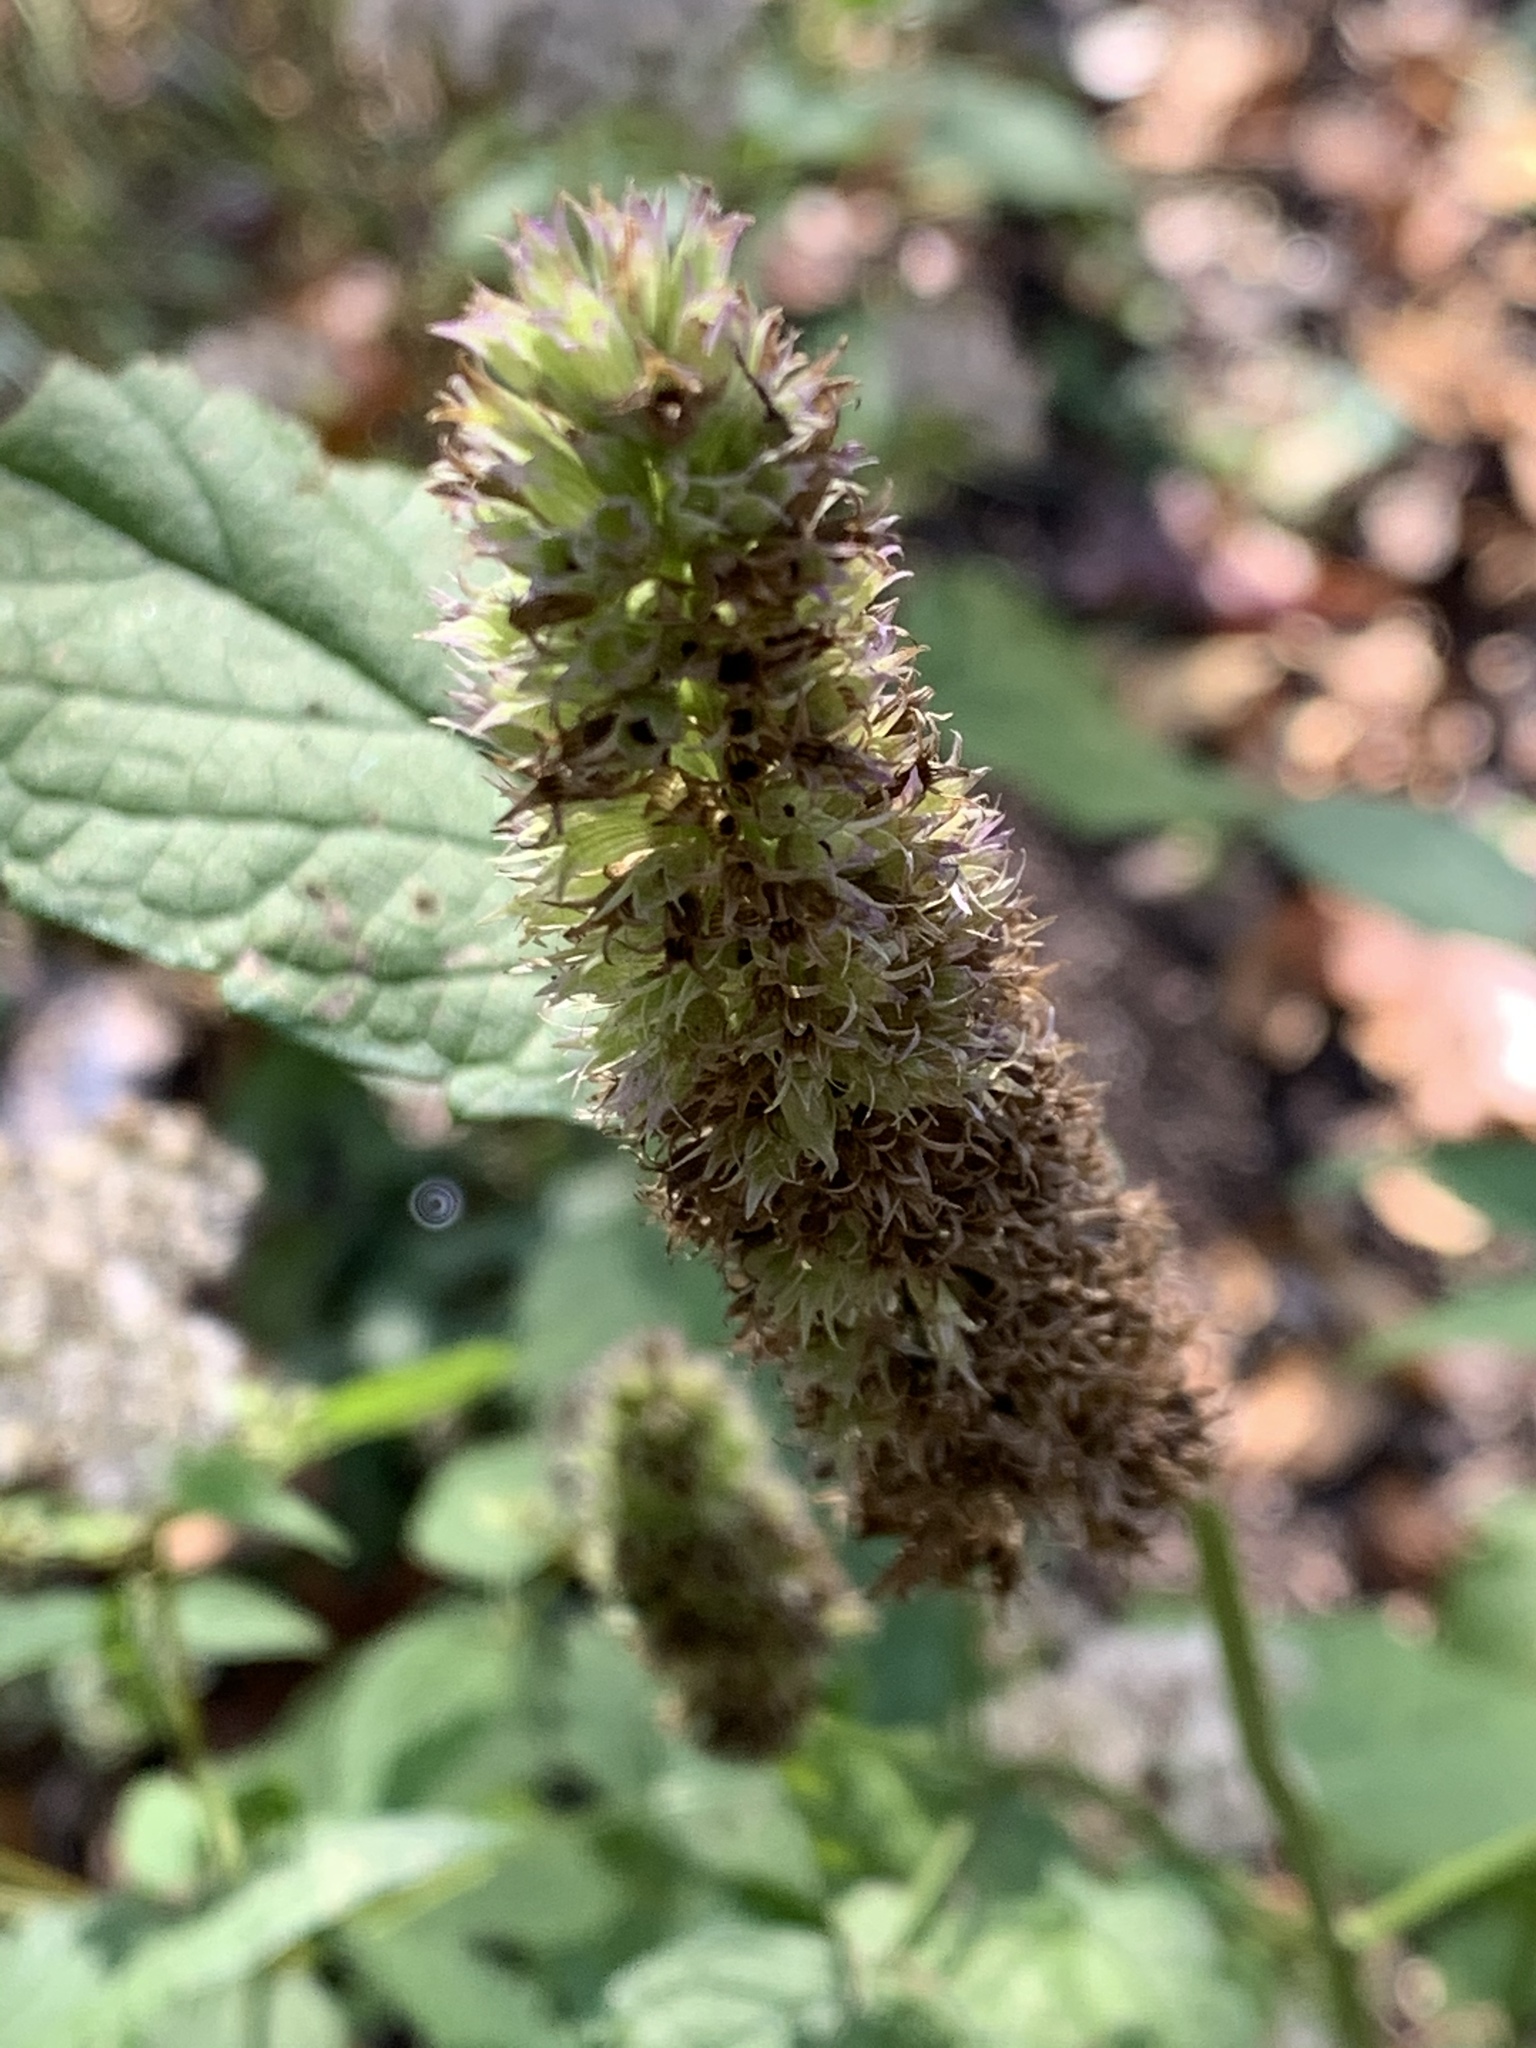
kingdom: Plantae
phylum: Tracheophyta
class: Magnoliopsida
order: Lamiales
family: Lamiaceae
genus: Agastache
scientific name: Agastache foeniculum
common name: Anise hyssop
